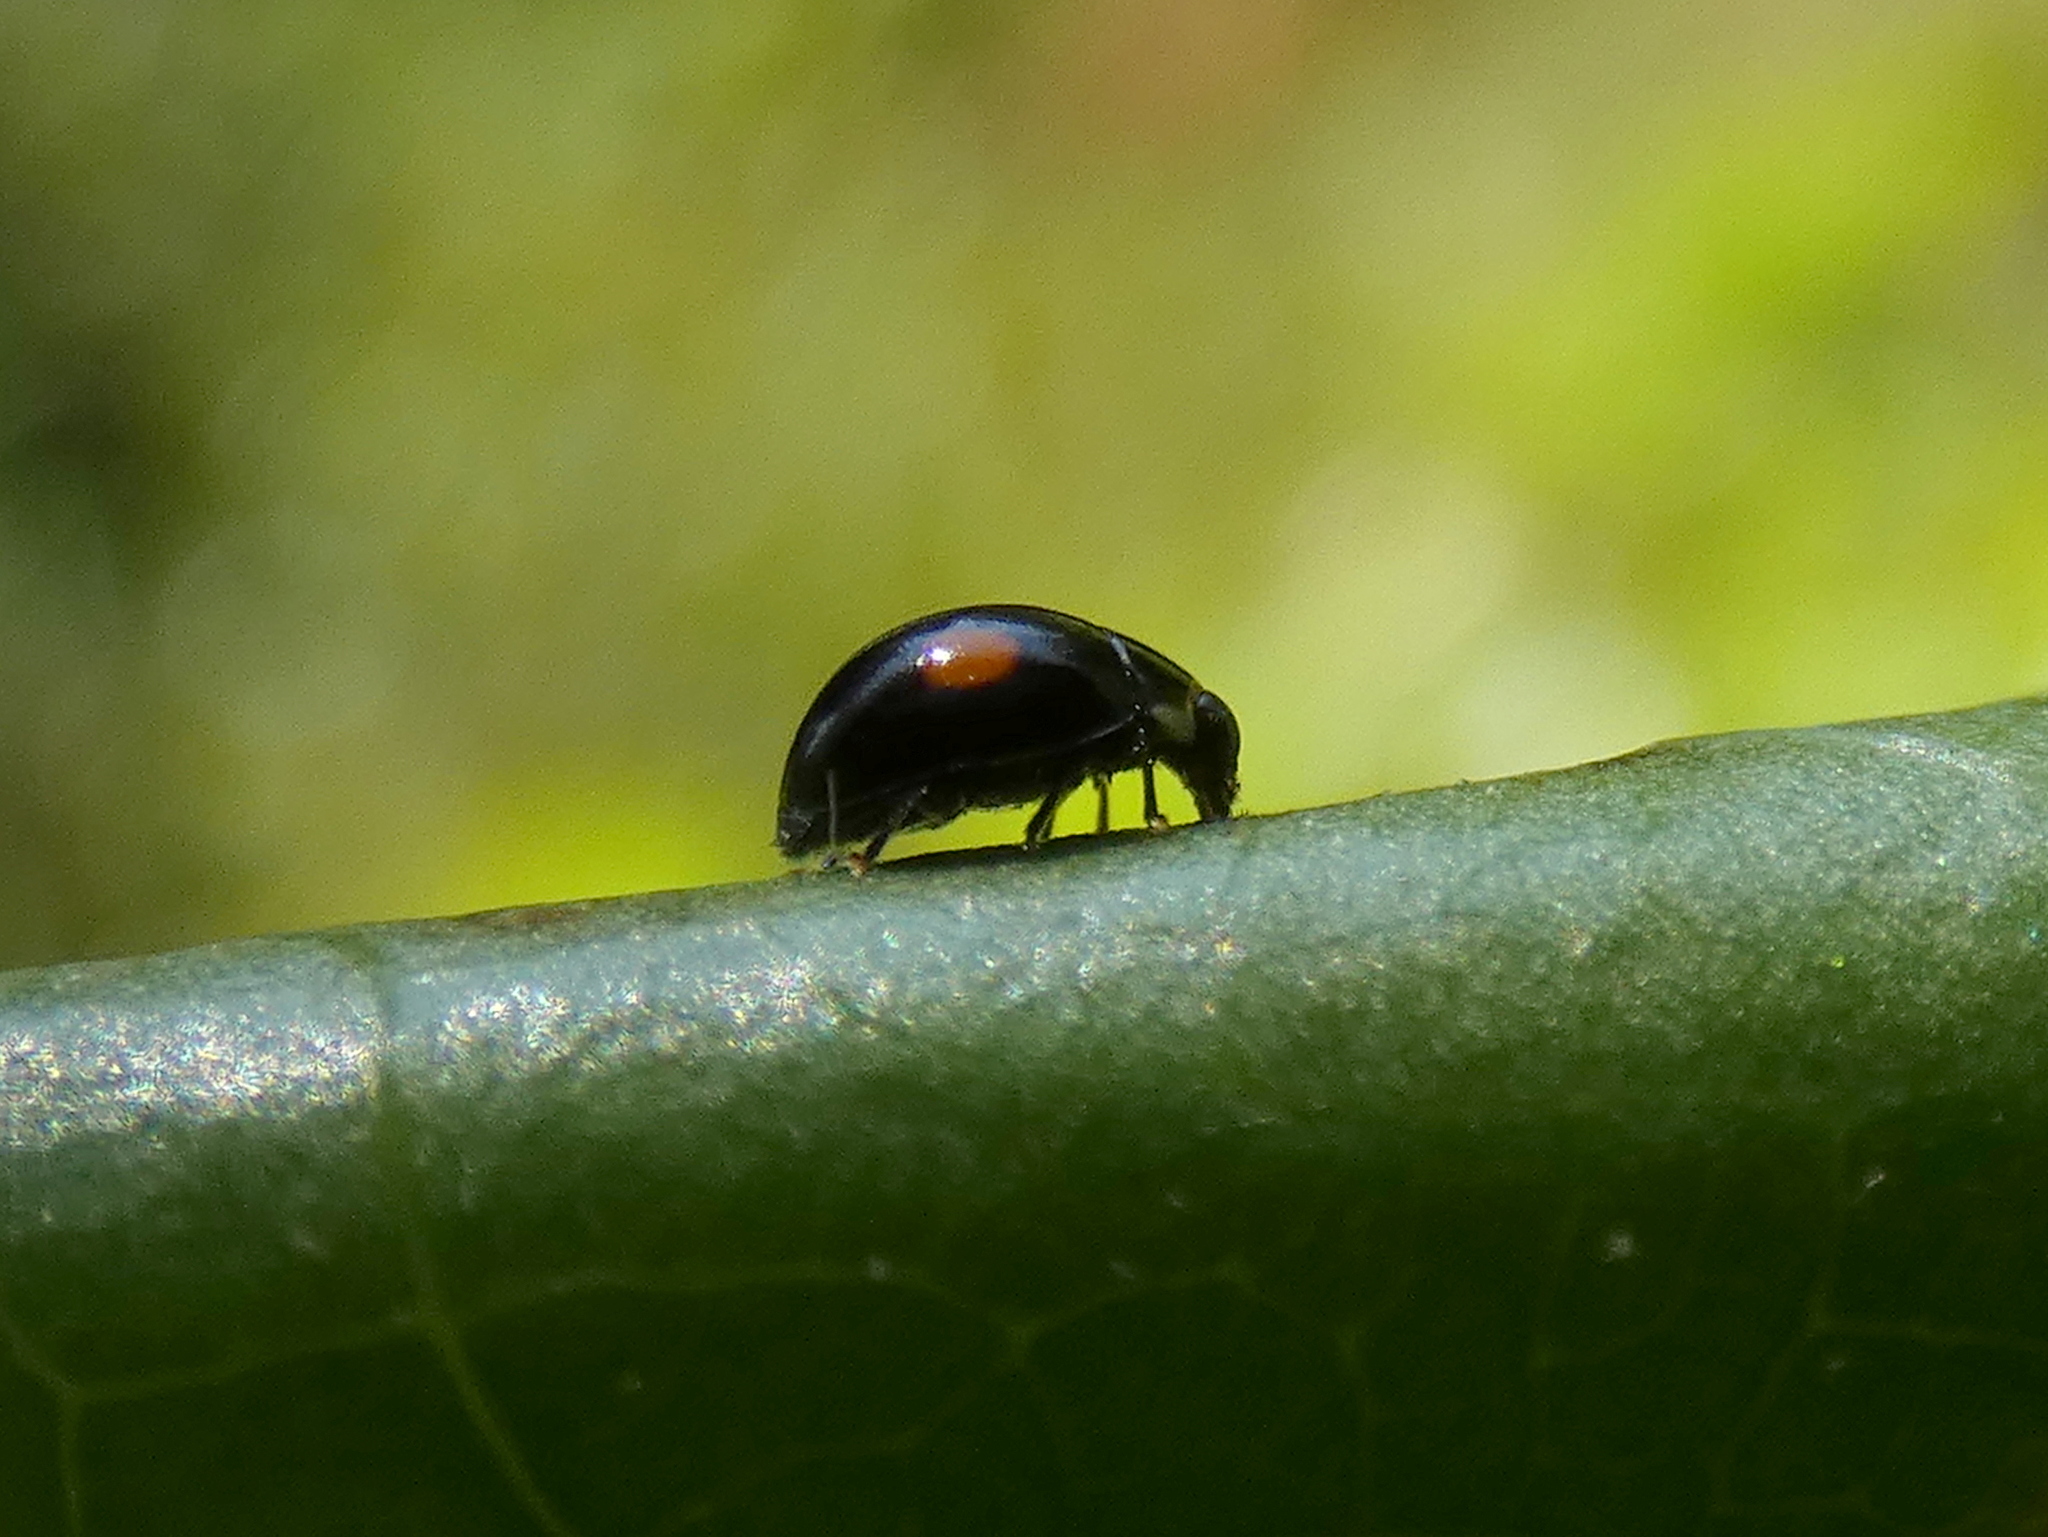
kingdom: Animalia
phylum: Arthropoda
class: Insecta
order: Coleoptera
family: Coccinellidae
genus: Hyperaspis
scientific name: Hyperaspis
